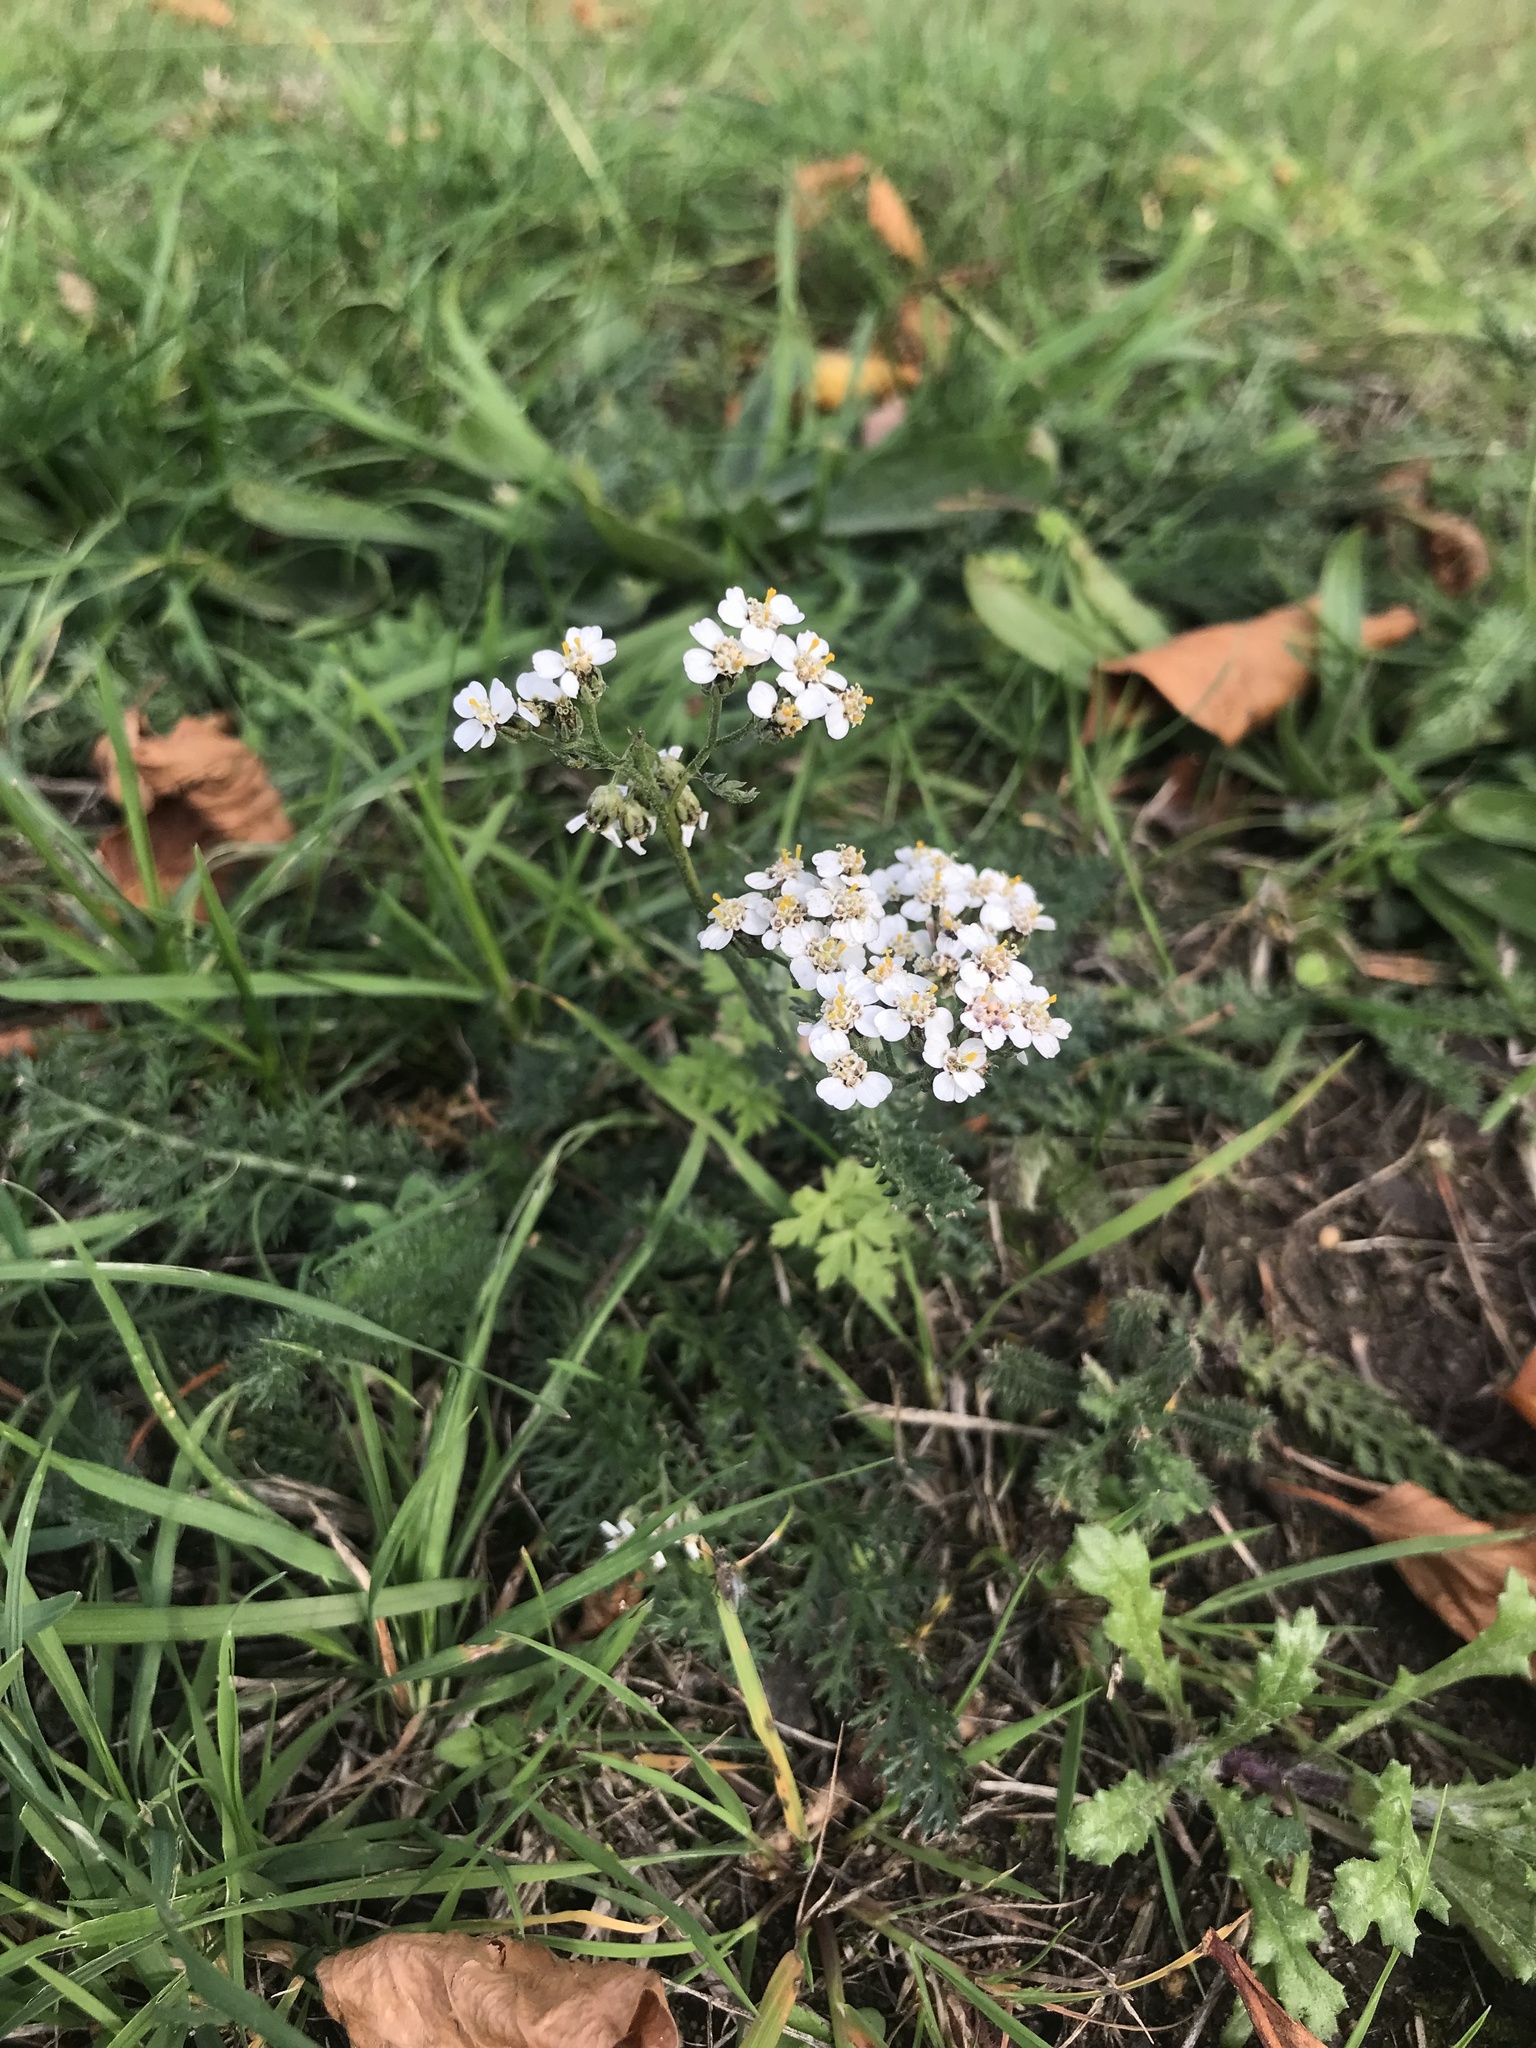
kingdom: Plantae
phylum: Tracheophyta
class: Magnoliopsida
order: Asterales
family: Asteraceae
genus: Achillea
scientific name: Achillea millefolium
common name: Yarrow
